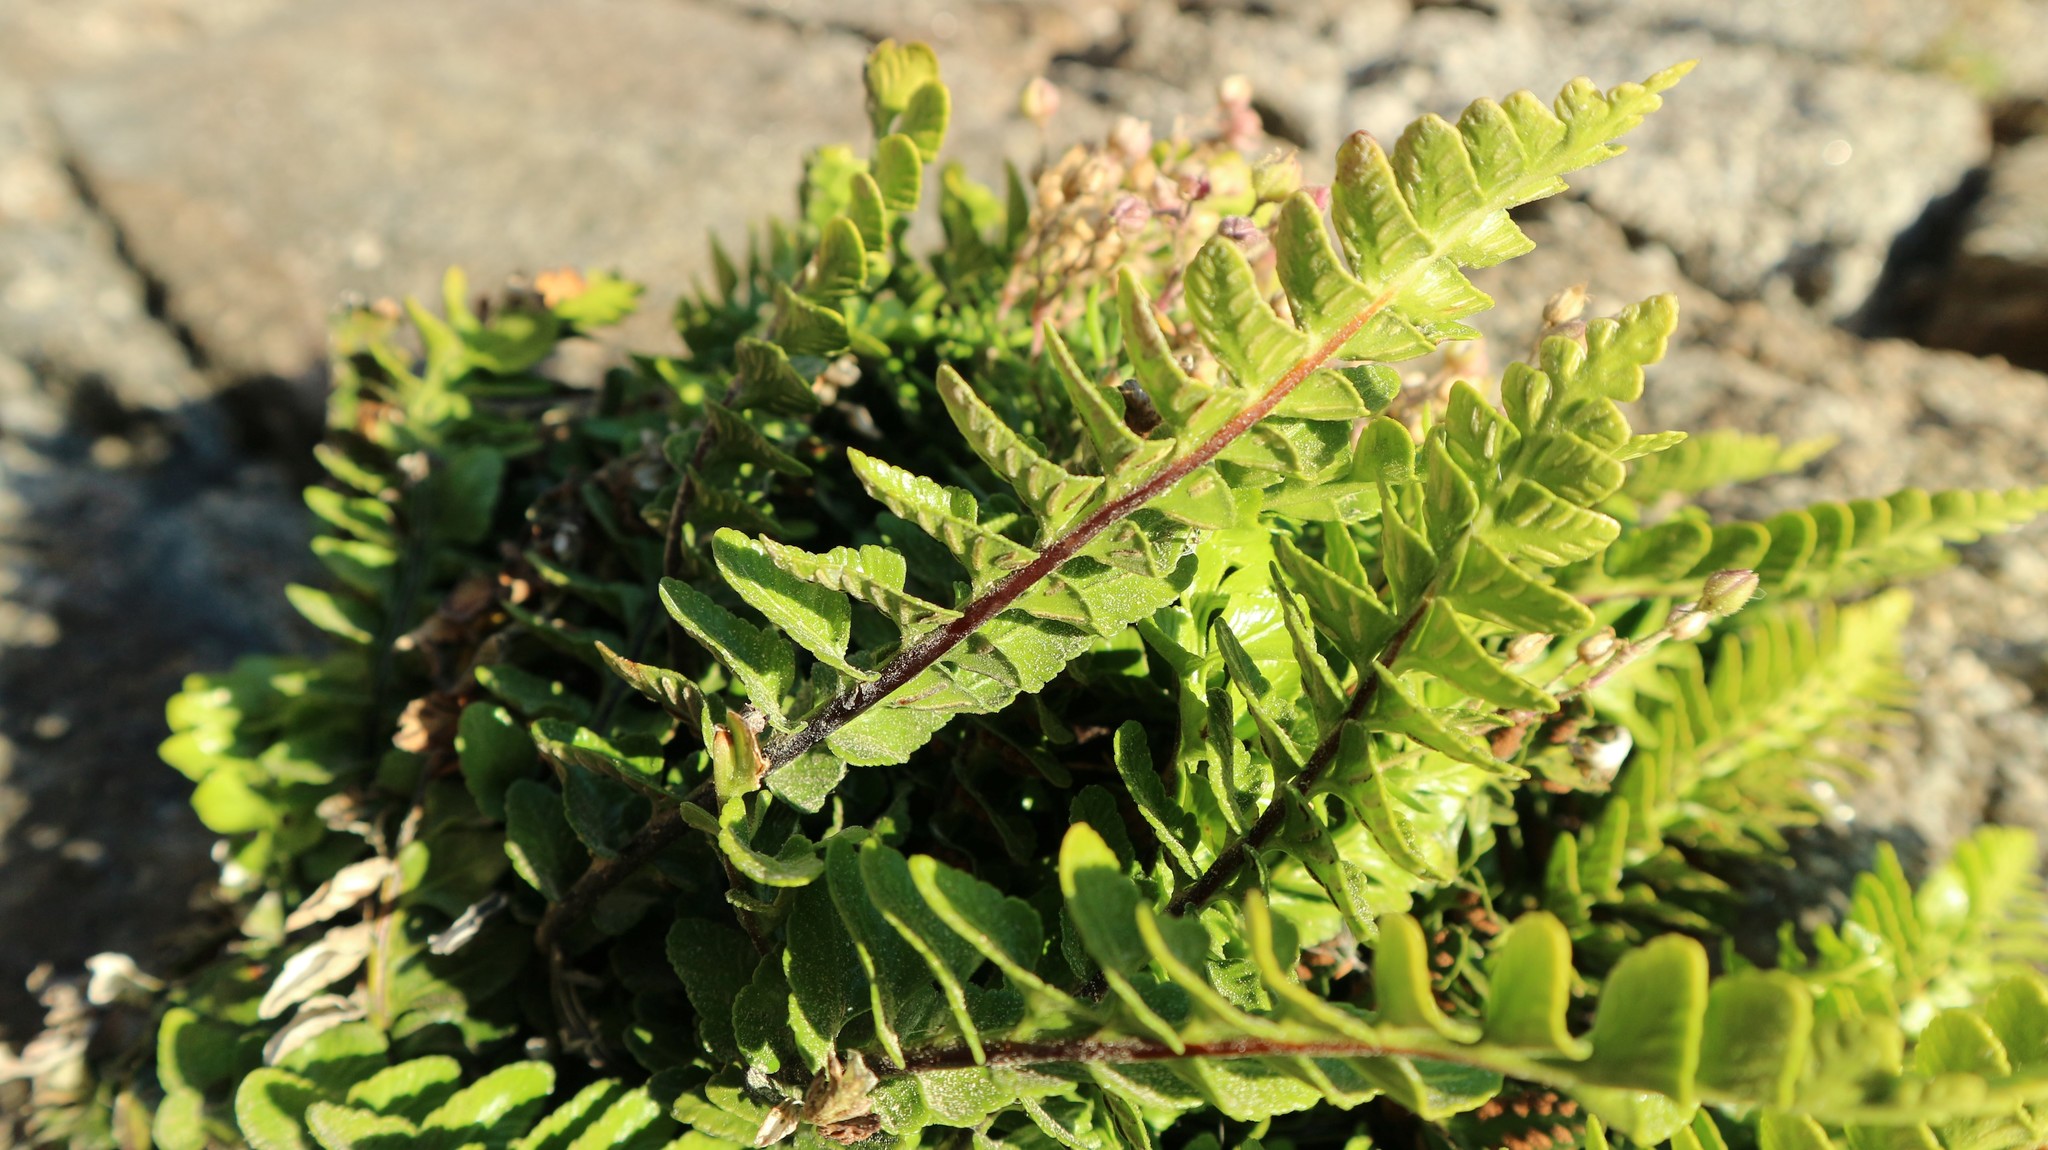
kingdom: Plantae
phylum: Tracheophyta
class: Polypodiopsida
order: Polypodiales
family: Aspleniaceae
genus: Asplenium
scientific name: Asplenium marinum
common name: Sea spleenwort
